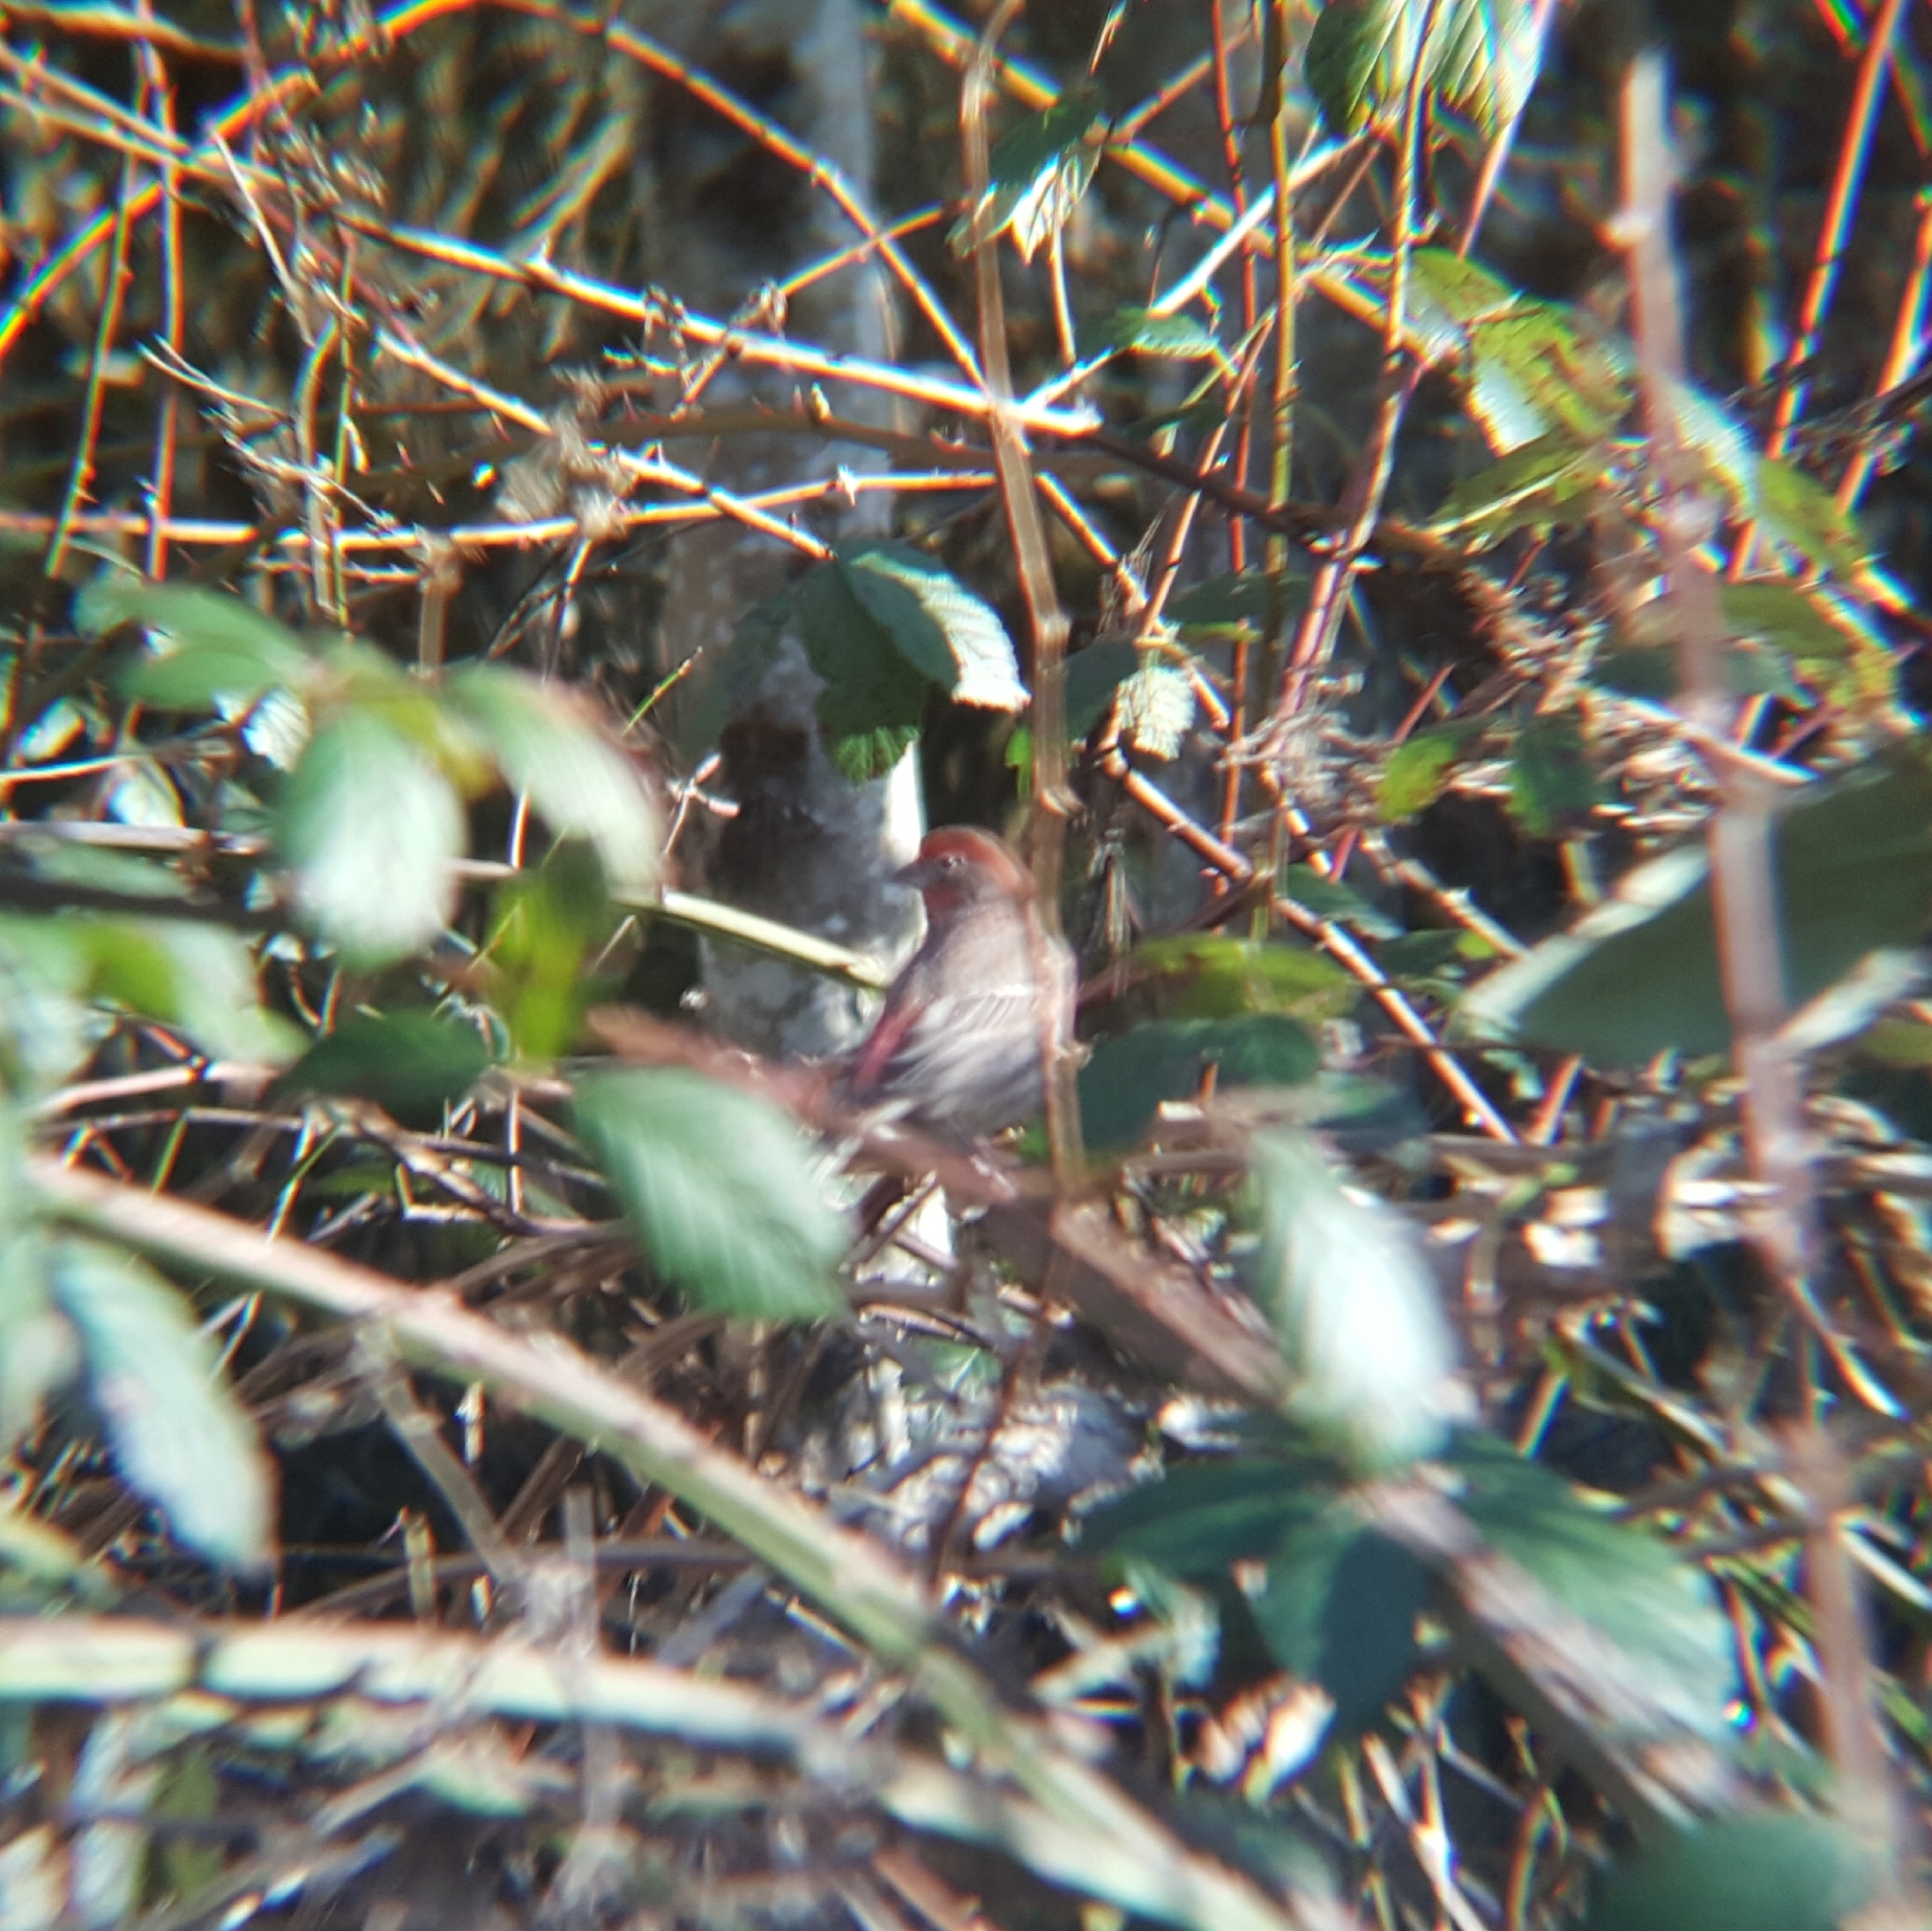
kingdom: Animalia
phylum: Chordata
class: Aves
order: Passeriformes
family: Fringillidae
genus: Haemorhous
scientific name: Haemorhous mexicanus
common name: House finch
